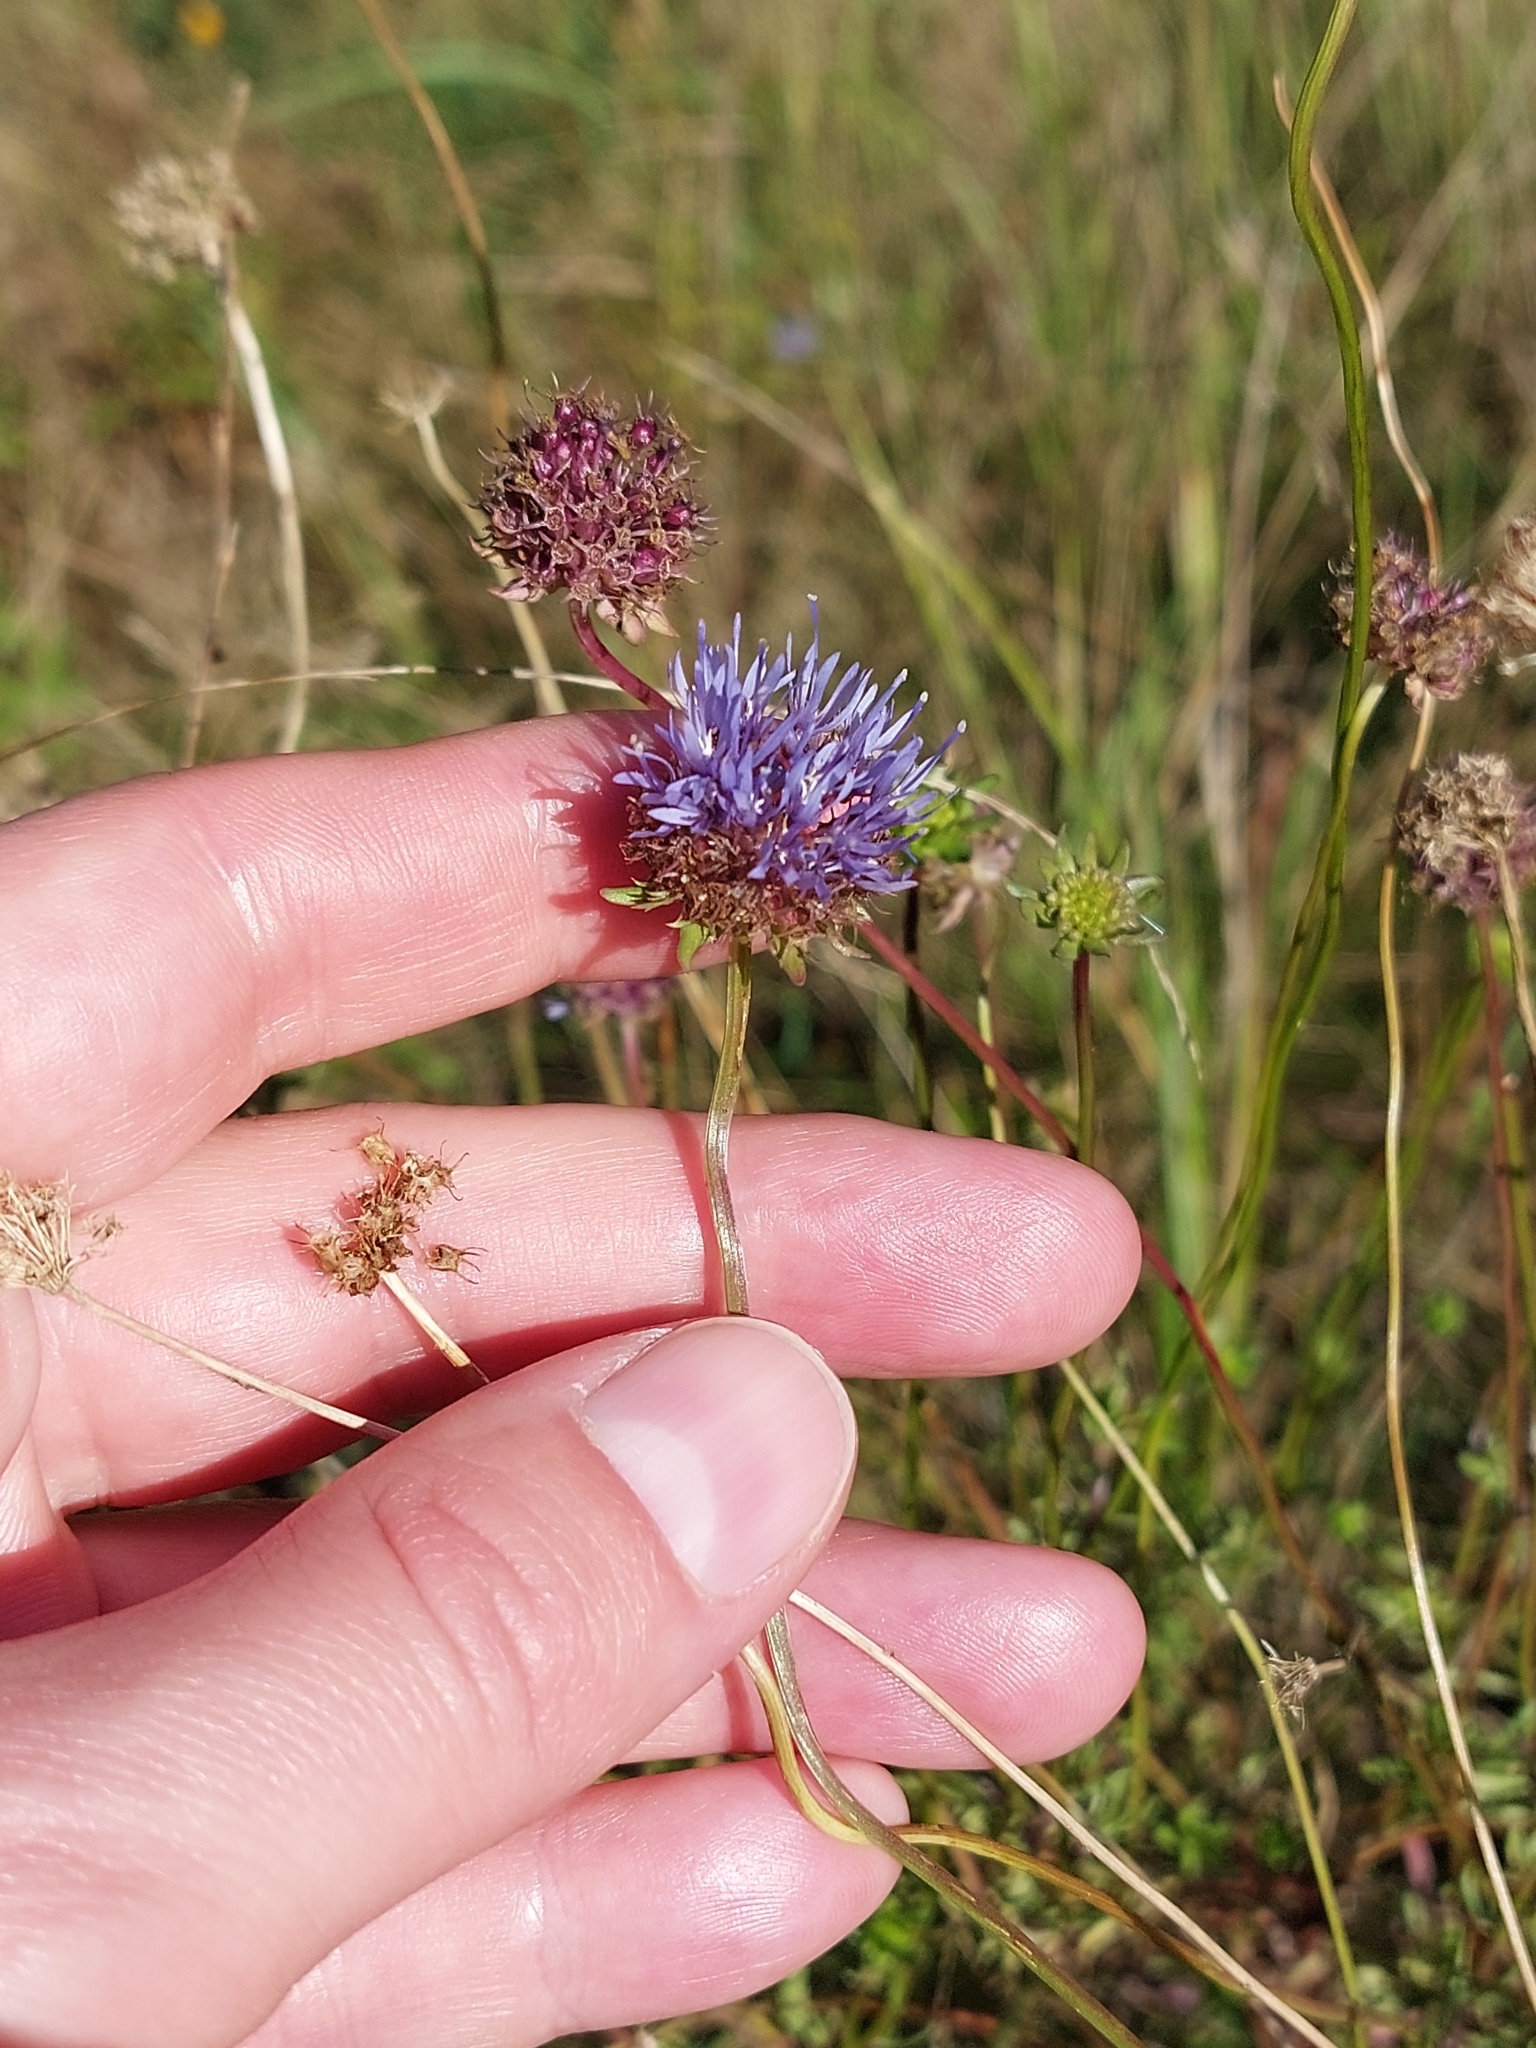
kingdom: Plantae
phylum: Tracheophyta
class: Magnoliopsida
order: Asterales
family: Campanulaceae
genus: Jasione
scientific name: Jasione montana
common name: Sheep's-bit
